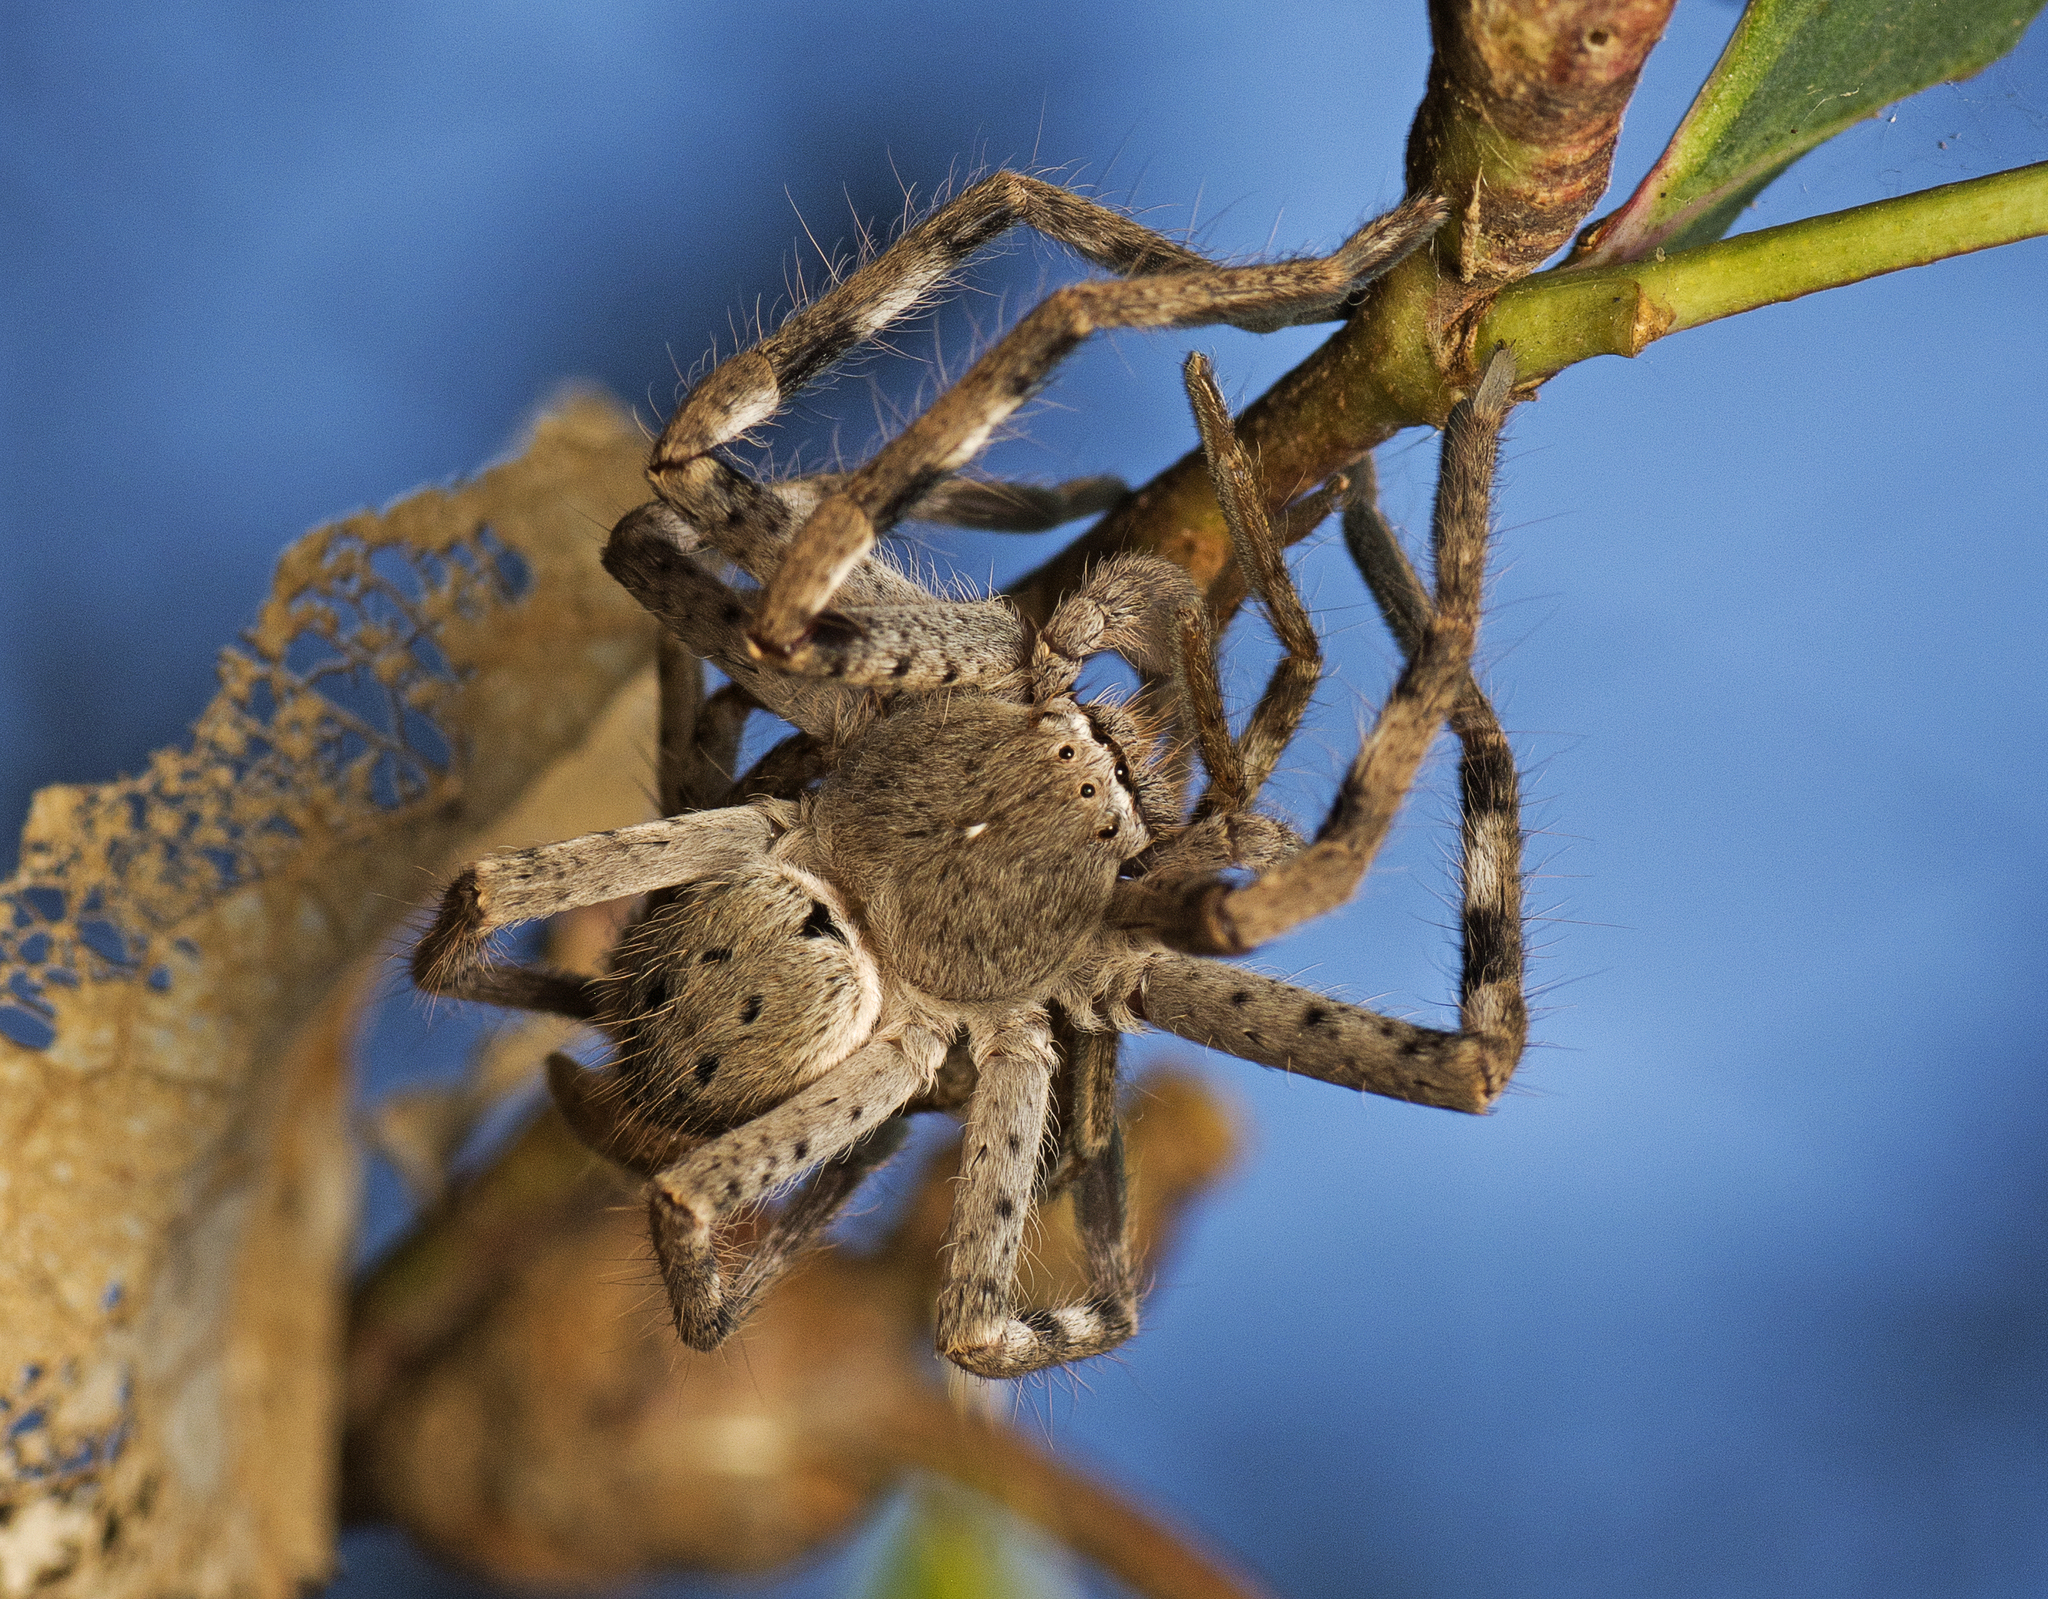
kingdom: Animalia
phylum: Arthropoda
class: Arachnida
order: Araneae
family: Sparassidae
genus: Isopedella
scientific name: Isopedella pessleri
